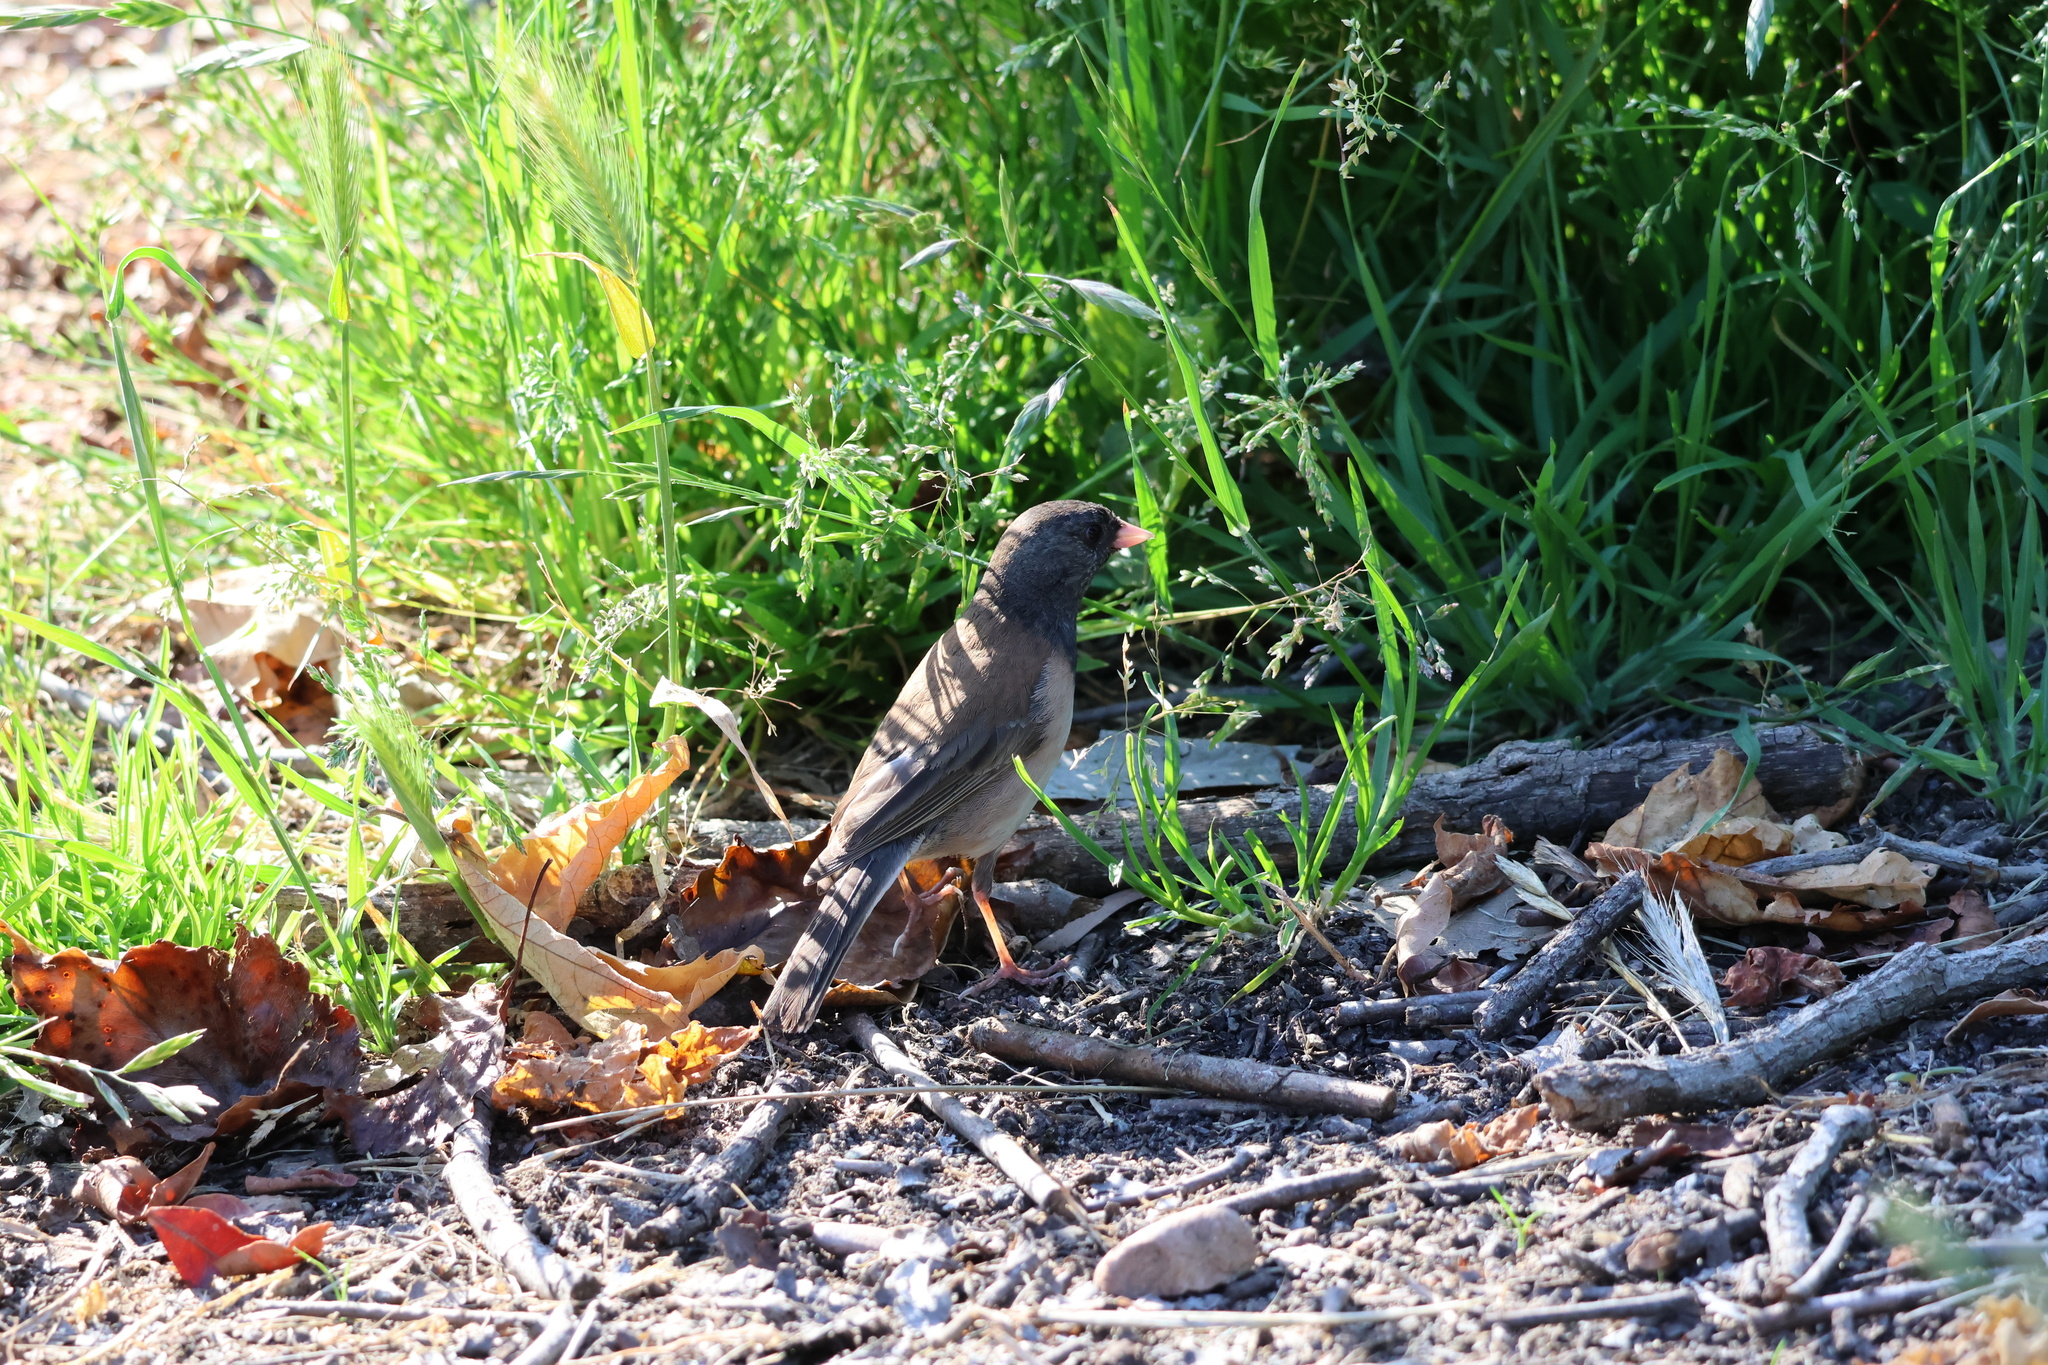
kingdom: Animalia
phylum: Chordata
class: Aves
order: Passeriformes
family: Passerellidae
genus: Junco
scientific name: Junco hyemalis
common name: Dark-eyed junco
